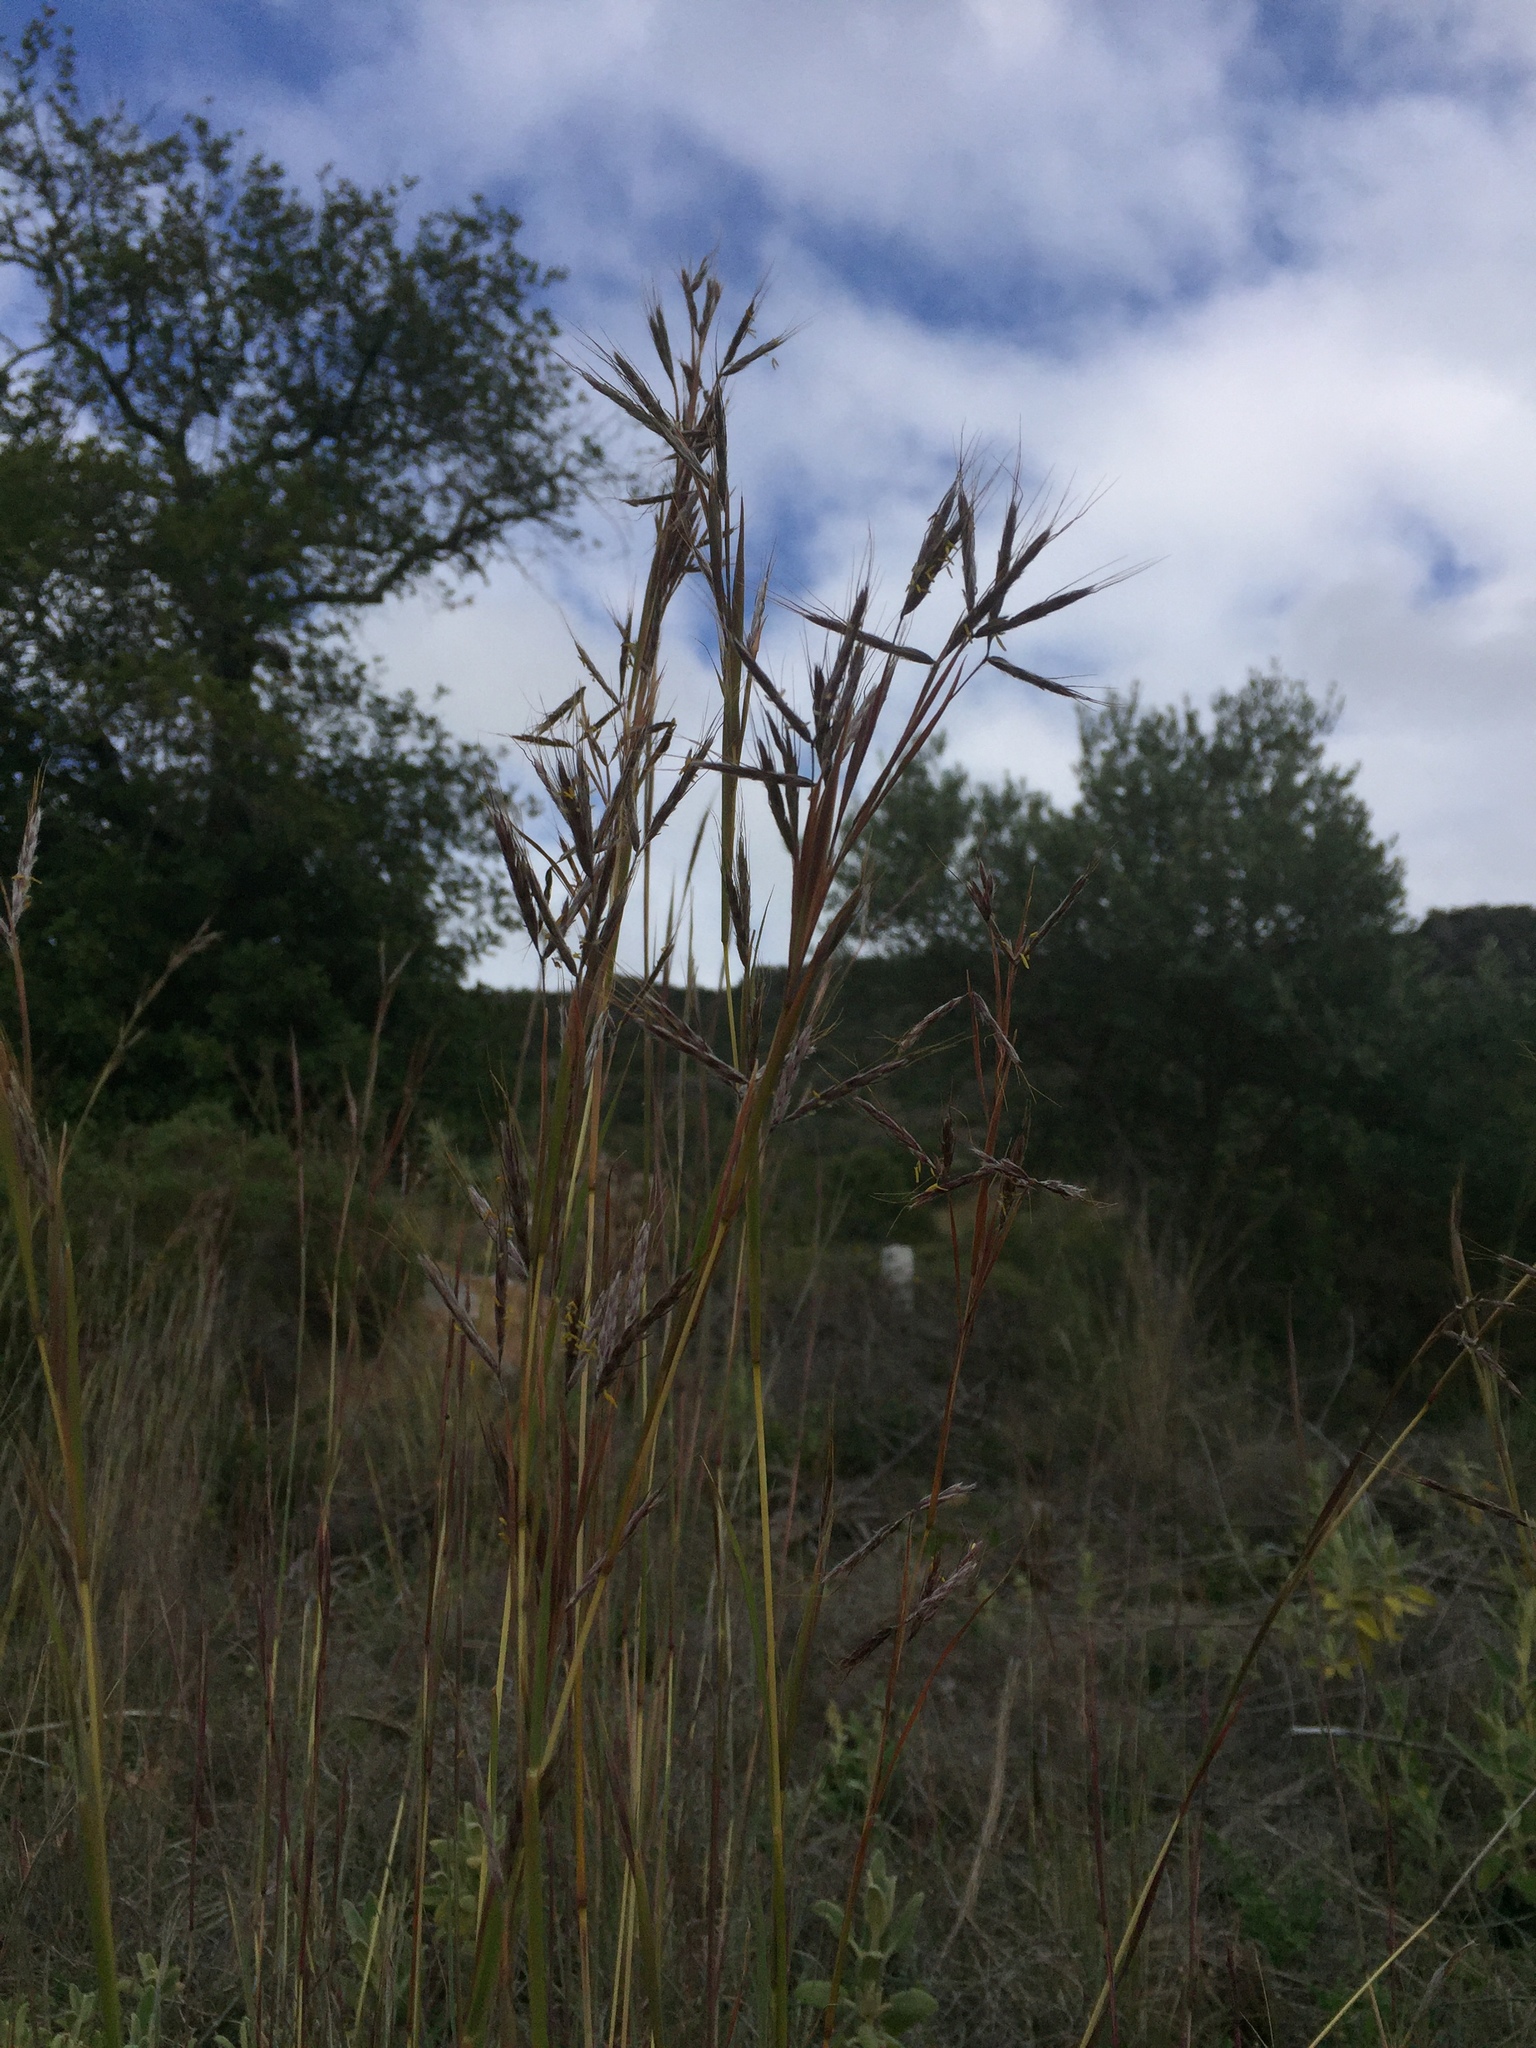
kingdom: Plantae
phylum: Tracheophyta
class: Liliopsida
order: Poales
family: Poaceae
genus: Hyparrhenia
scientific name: Hyparrhenia hirta
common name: Thatching grass
